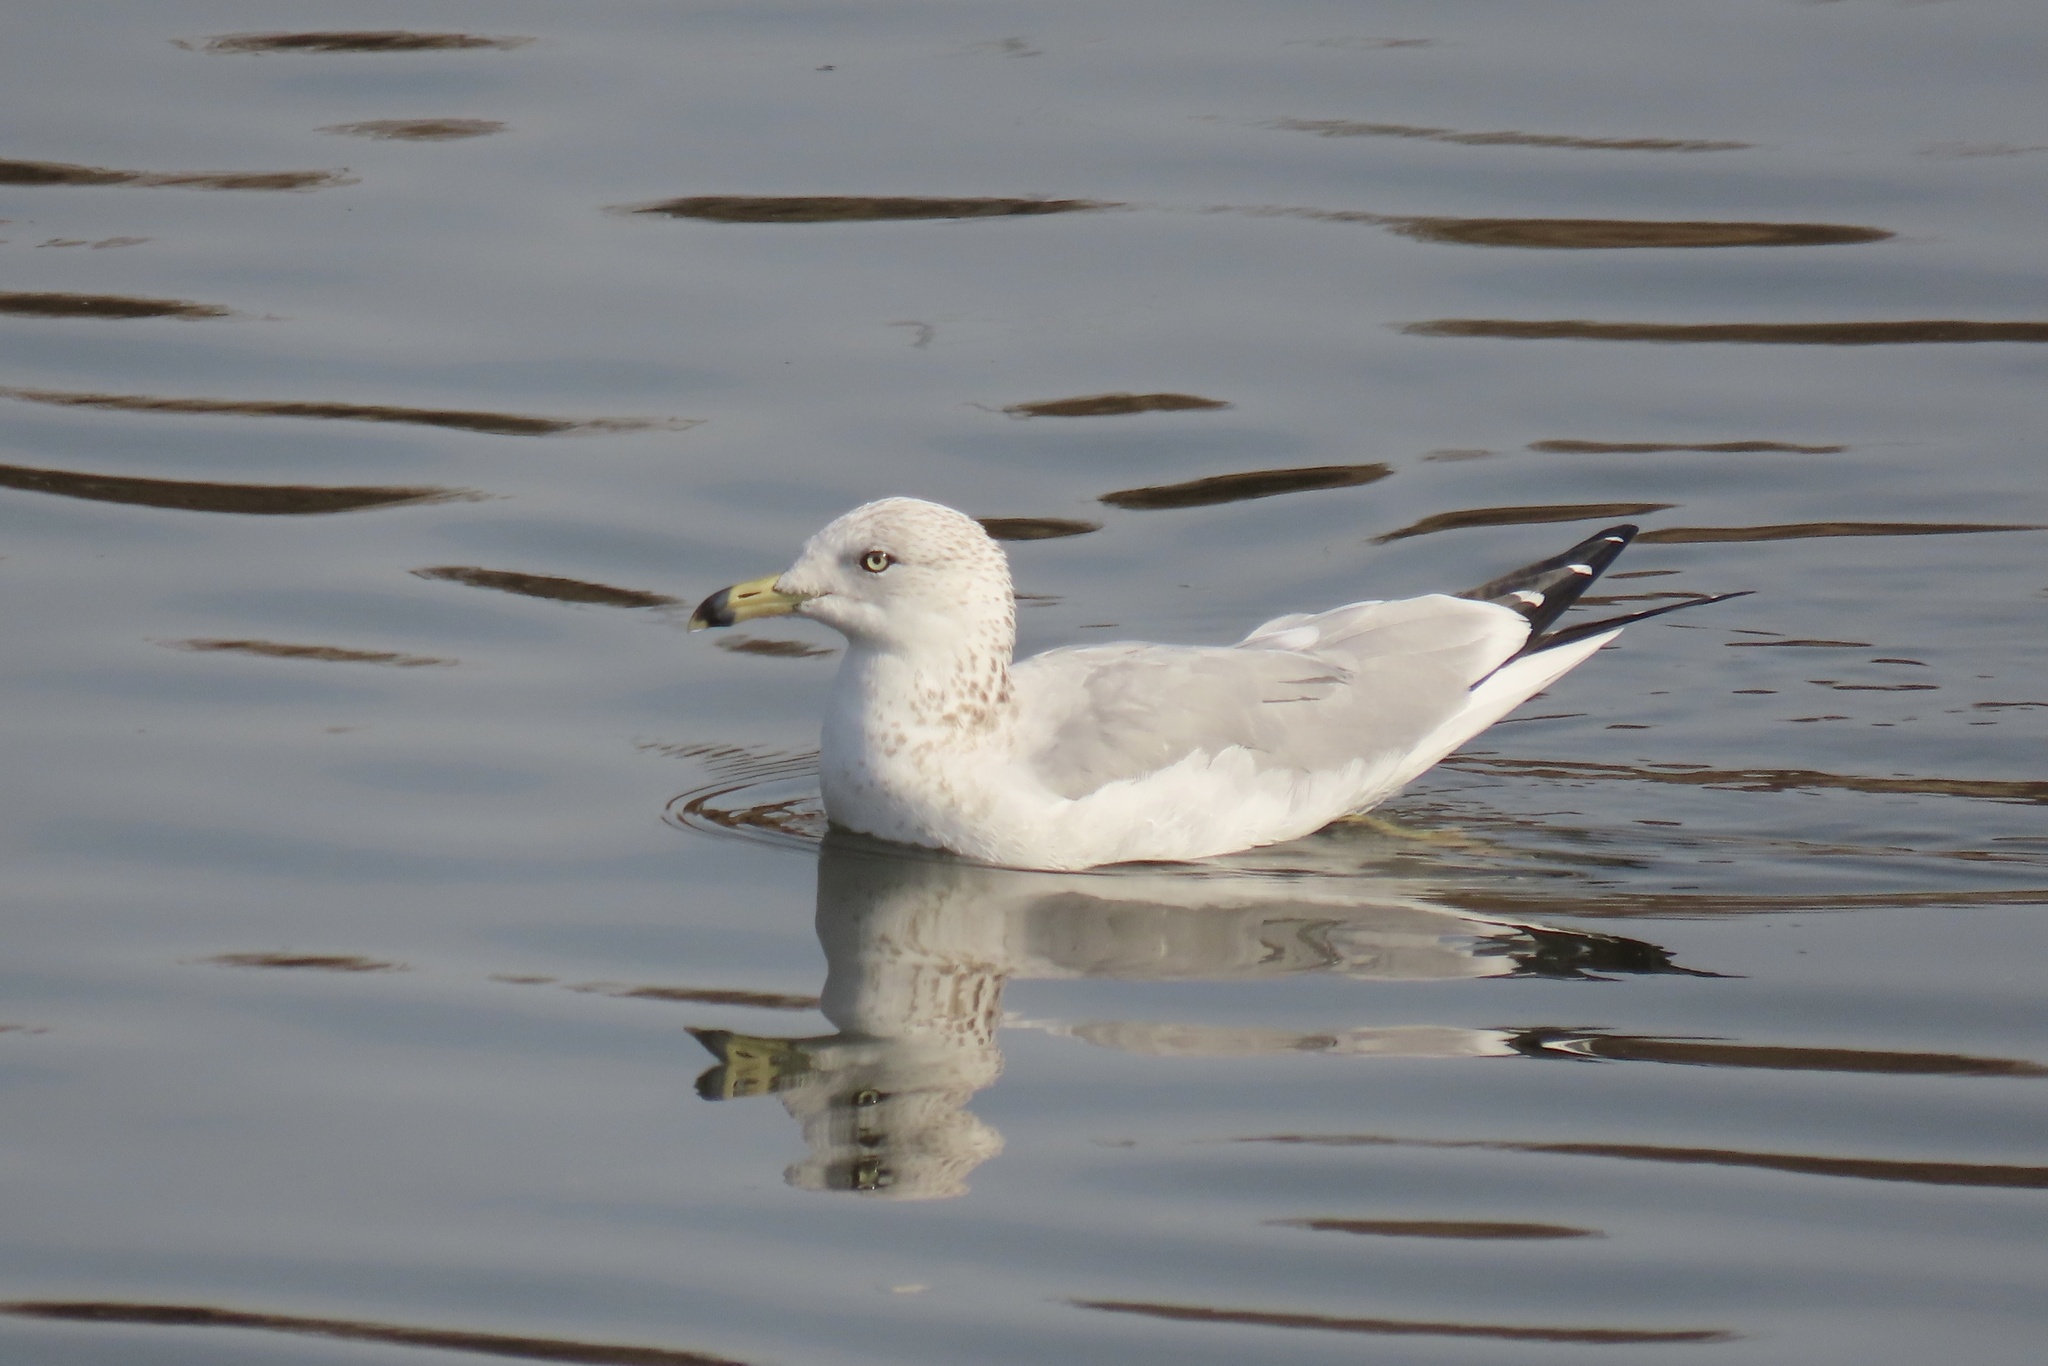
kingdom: Animalia
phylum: Chordata
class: Aves
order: Charadriiformes
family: Laridae
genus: Larus
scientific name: Larus delawarensis
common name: Ring-billed gull
